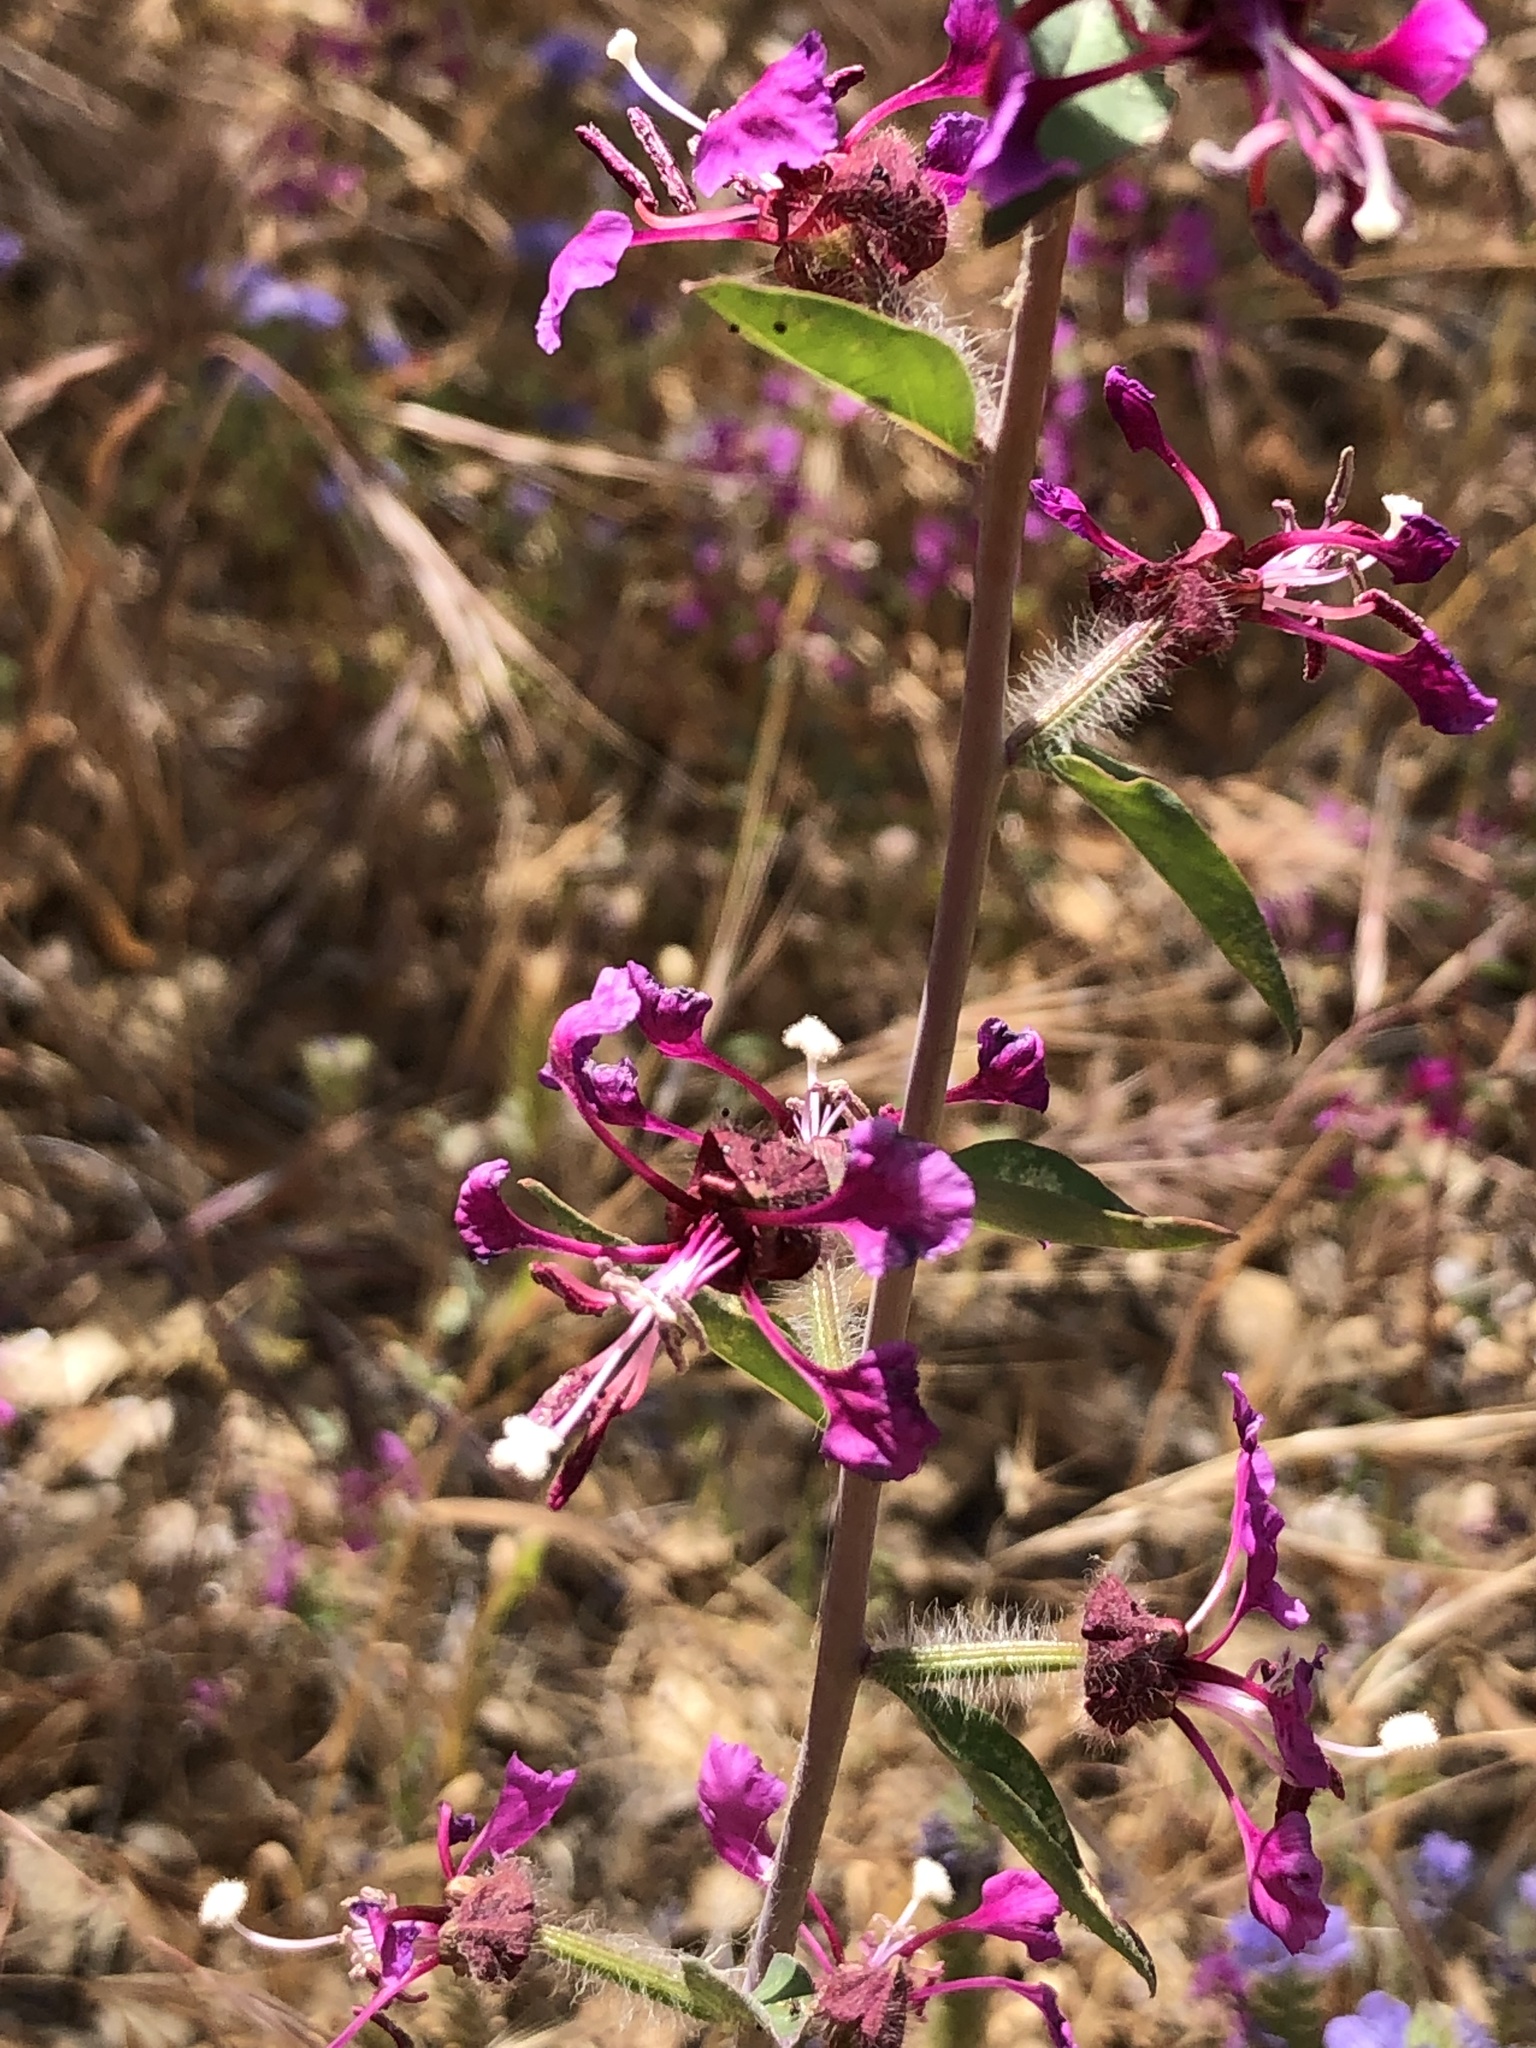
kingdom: Plantae
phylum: Tracheophyta
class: Magnoliopsida
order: Myrtales
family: Onagraceae
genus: Clarkia
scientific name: Clarkia unguiculata
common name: Clarkia
